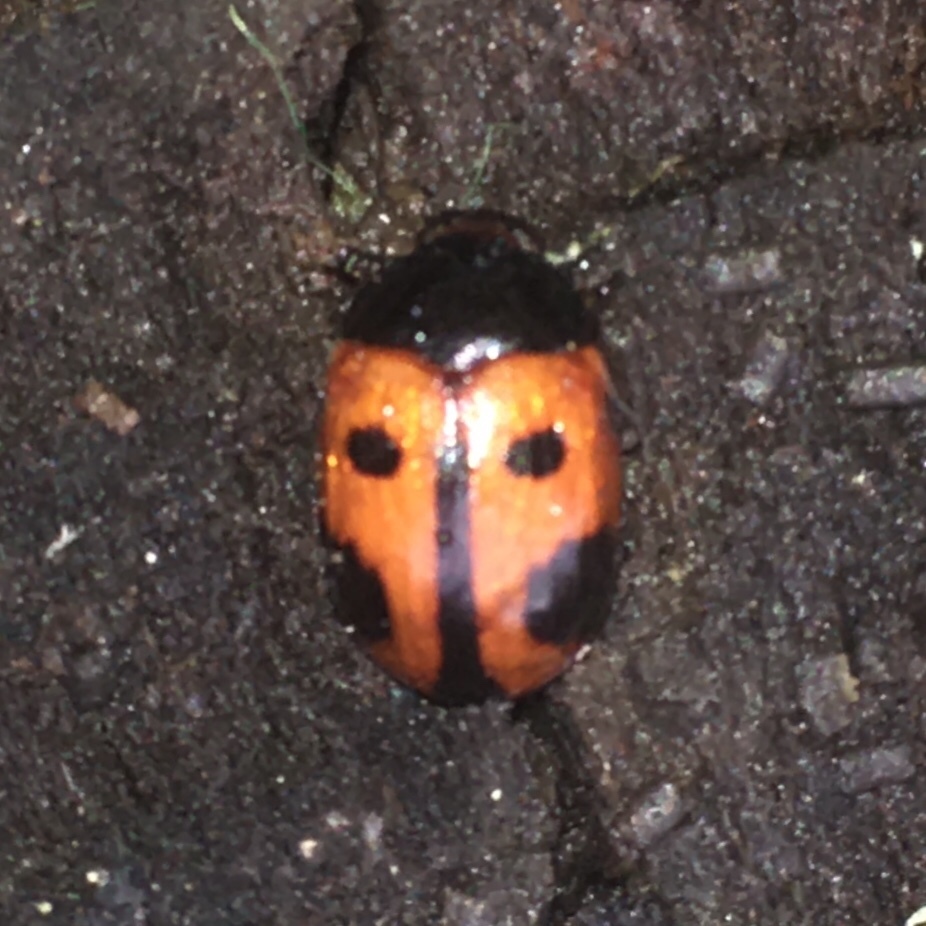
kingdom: Animalia
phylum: Arthropoda
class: Insecta
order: Coleoptera
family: Tenebrionidae
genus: Diaperis
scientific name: Diaperis maculata
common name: Darkling beetle
